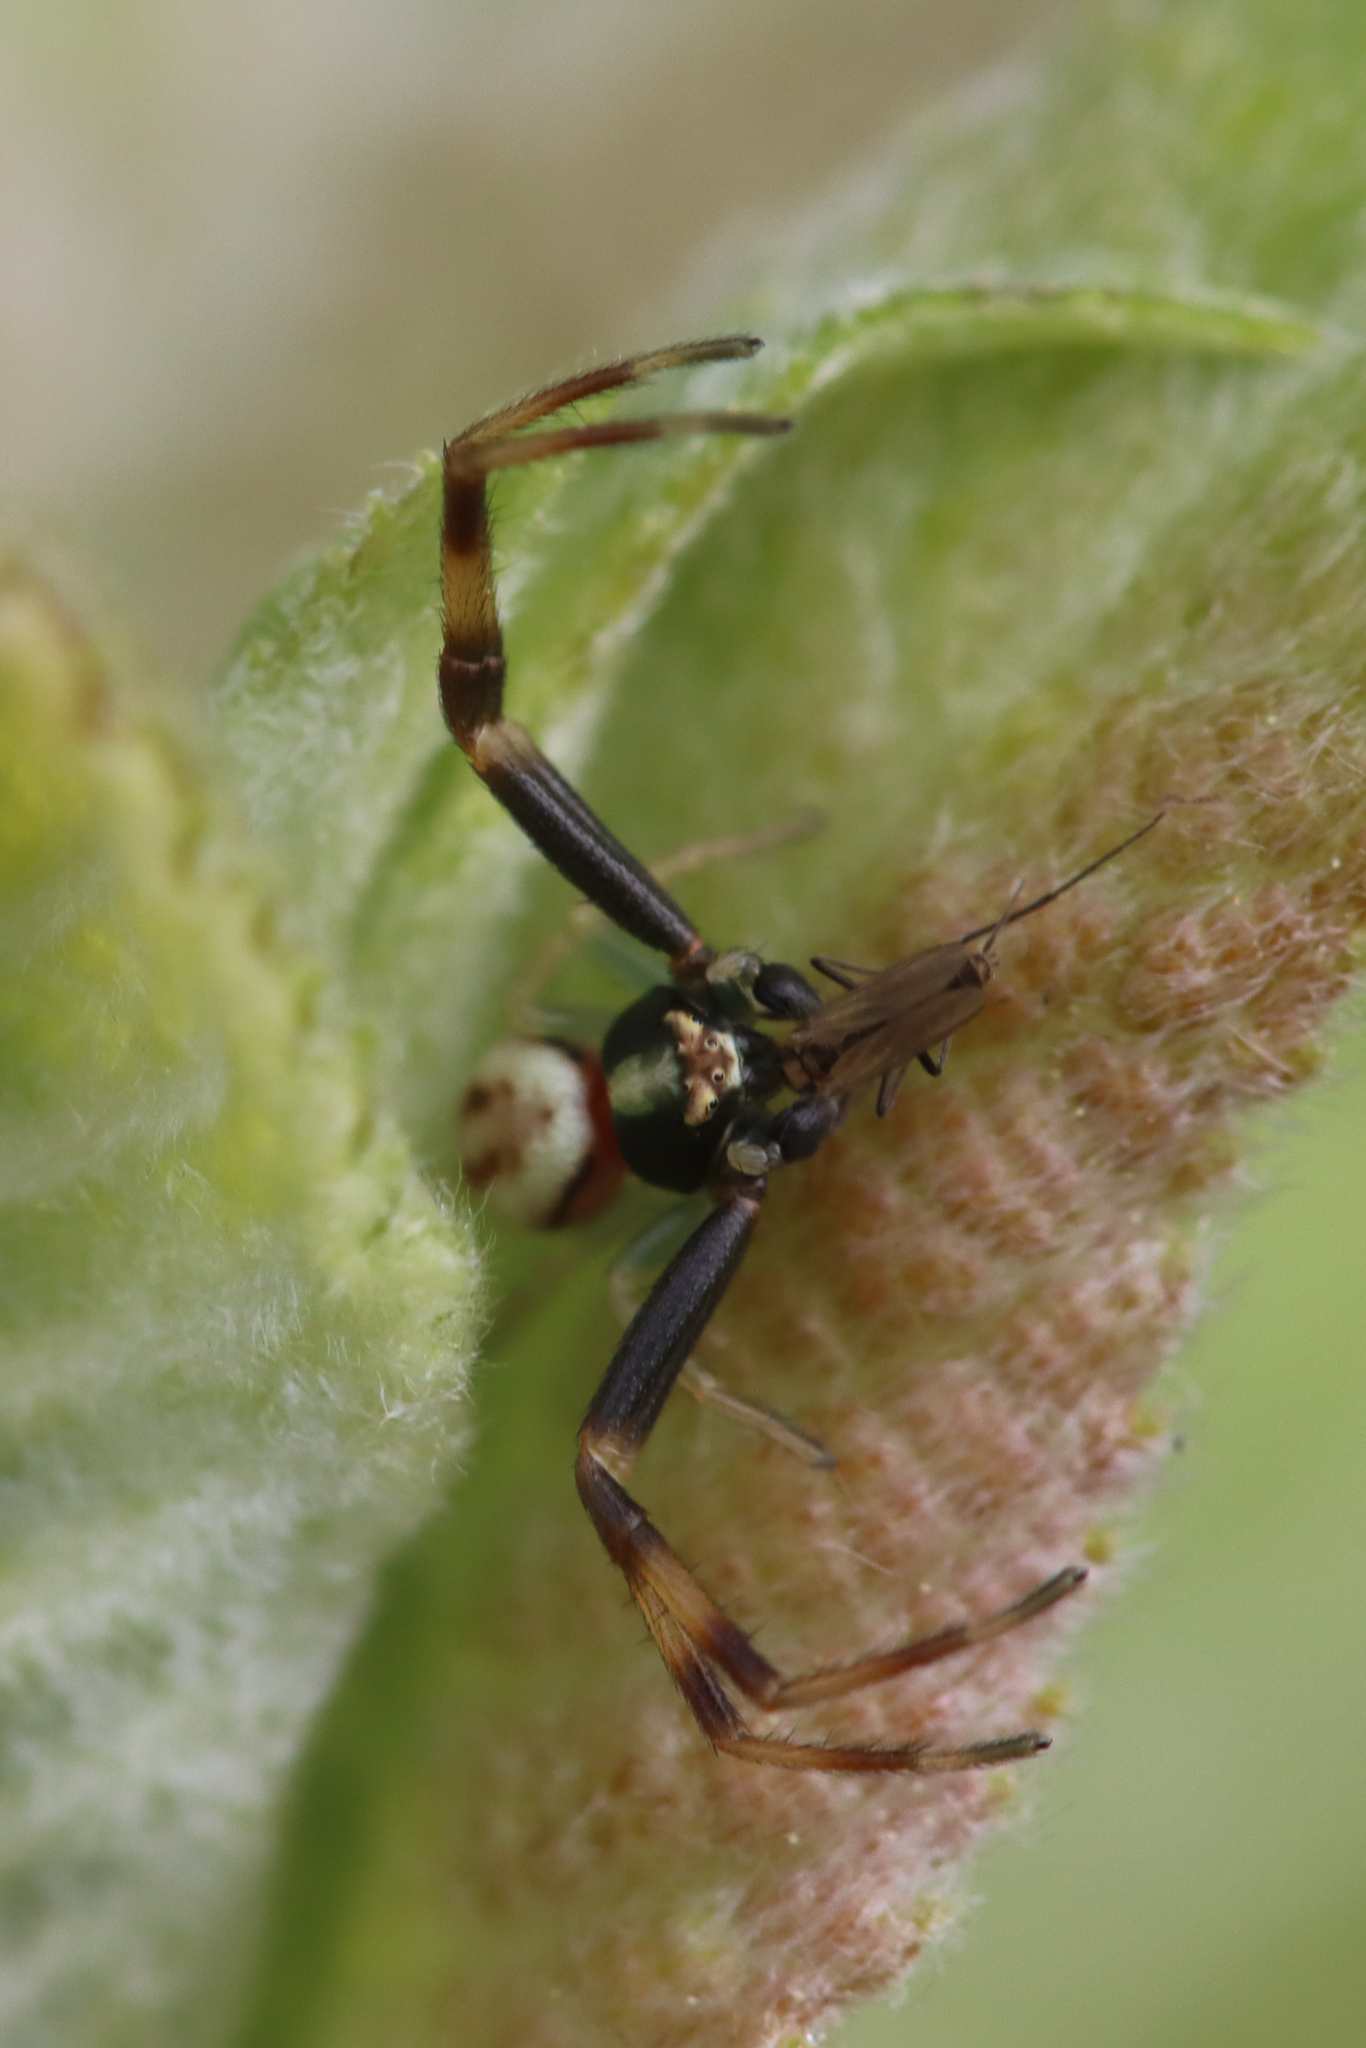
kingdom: Animalia
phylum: Arthropoda
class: Arachnida
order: Araneae
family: Thomisidae
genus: Misumena
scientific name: Misumena vatia
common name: Goldenrod crab spider
